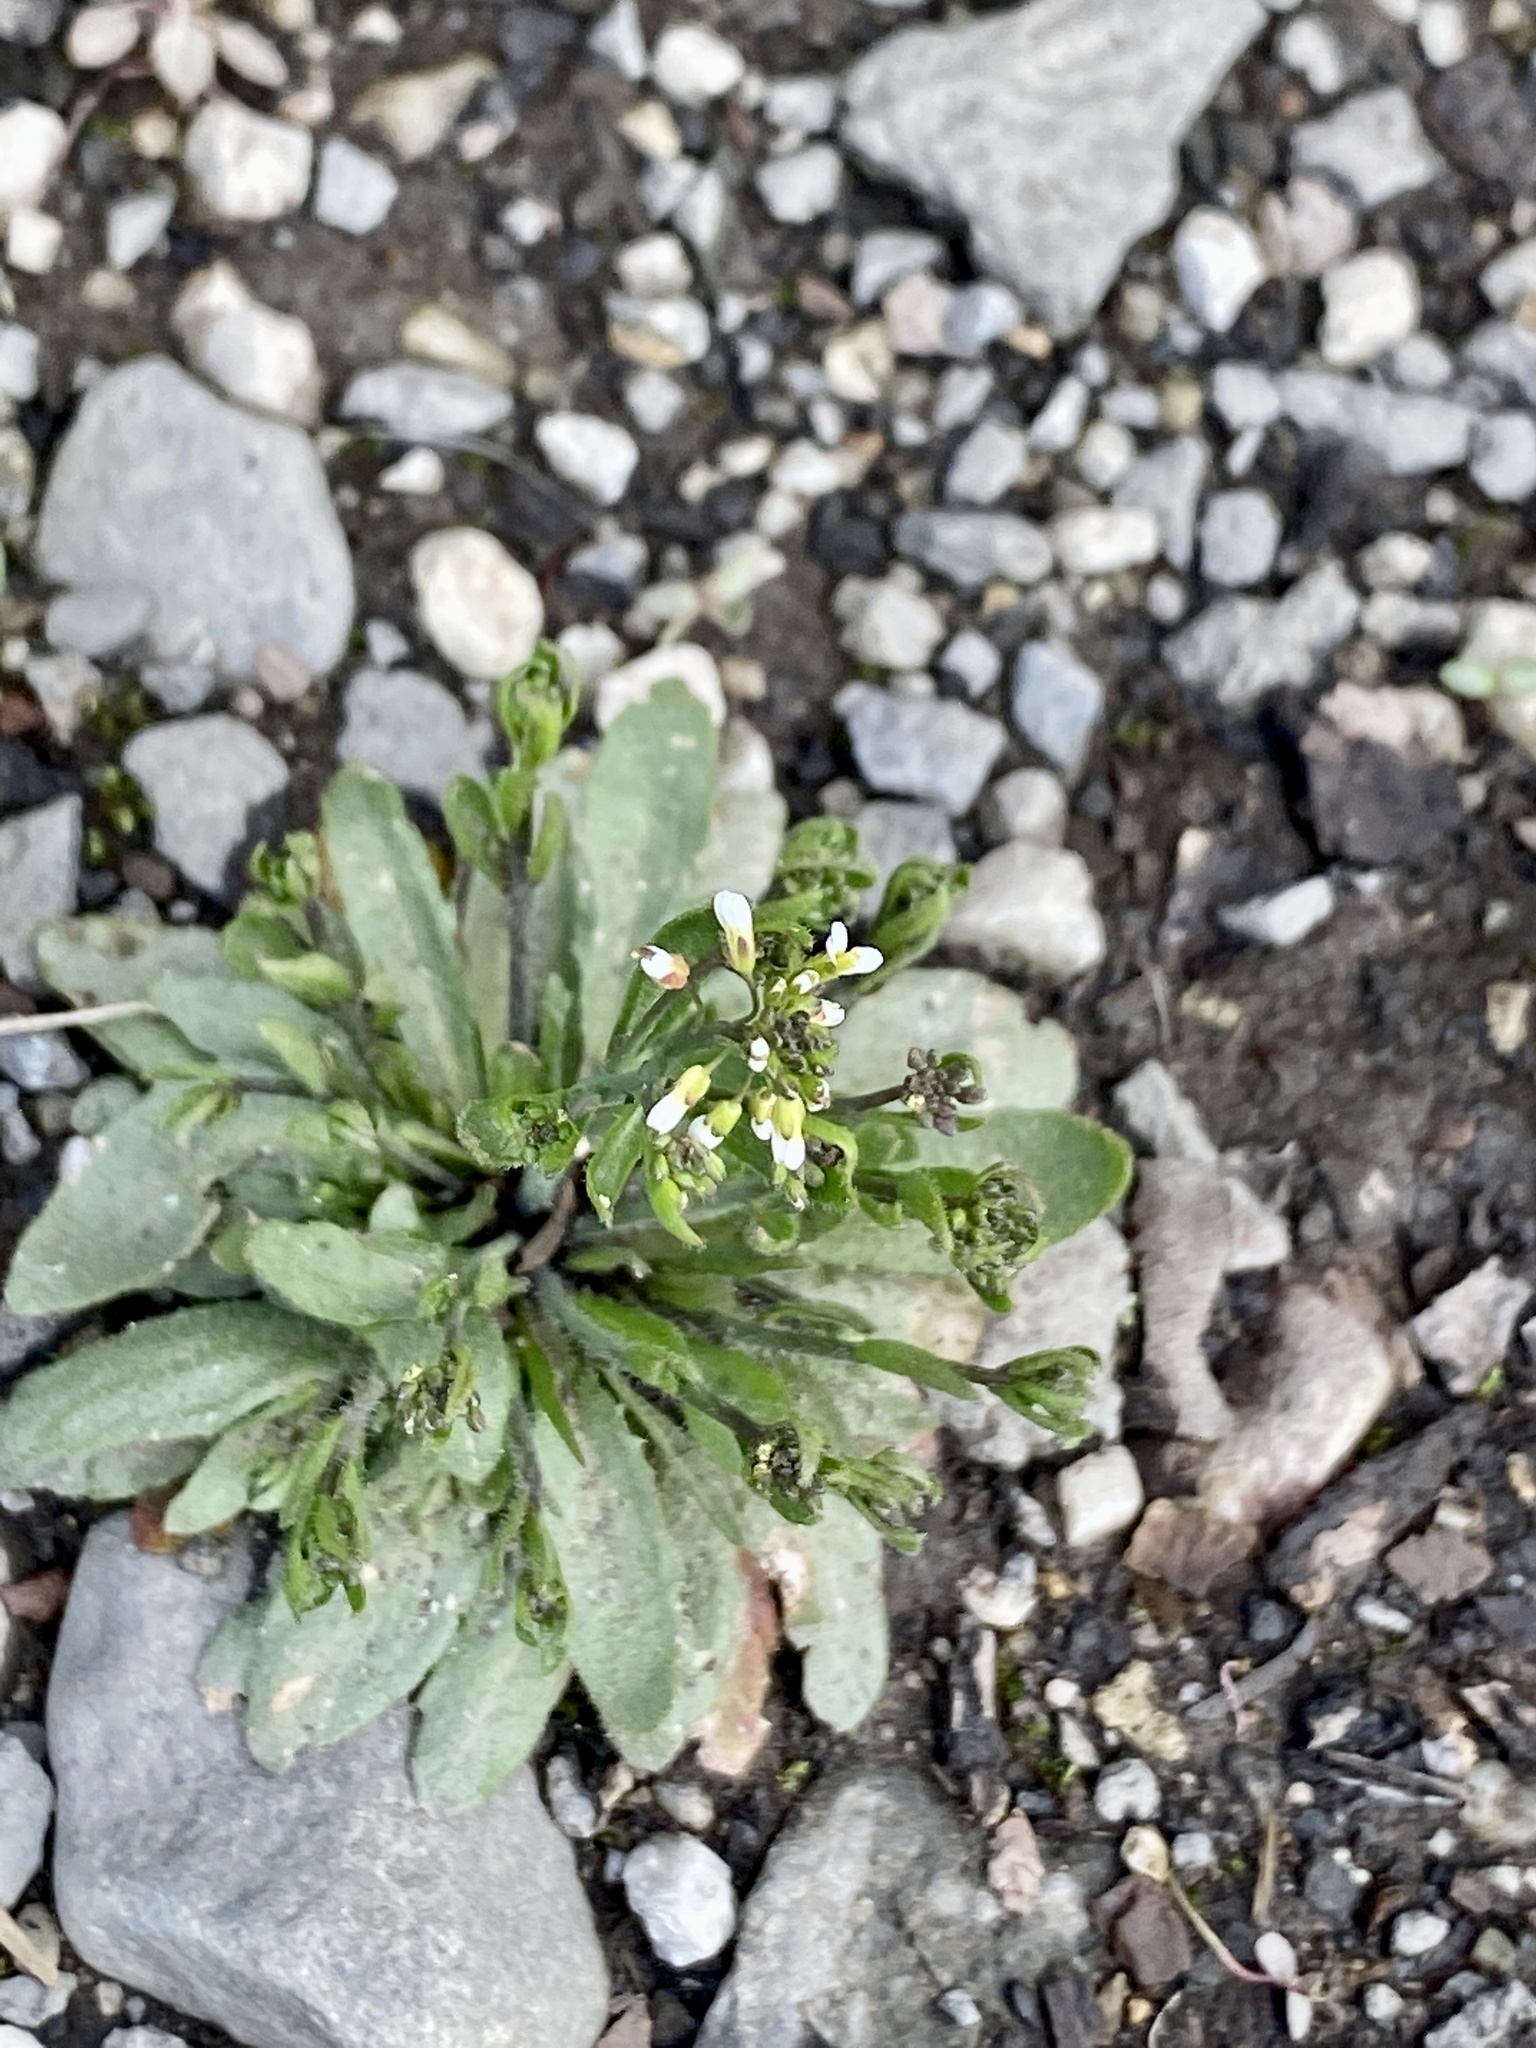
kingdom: Plantae
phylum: Tracheophyta
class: Magnoliopsida
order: Brassicales
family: Brassicaceae
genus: Arabidopsis
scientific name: Arabidopsis thaliana
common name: Thale cress
